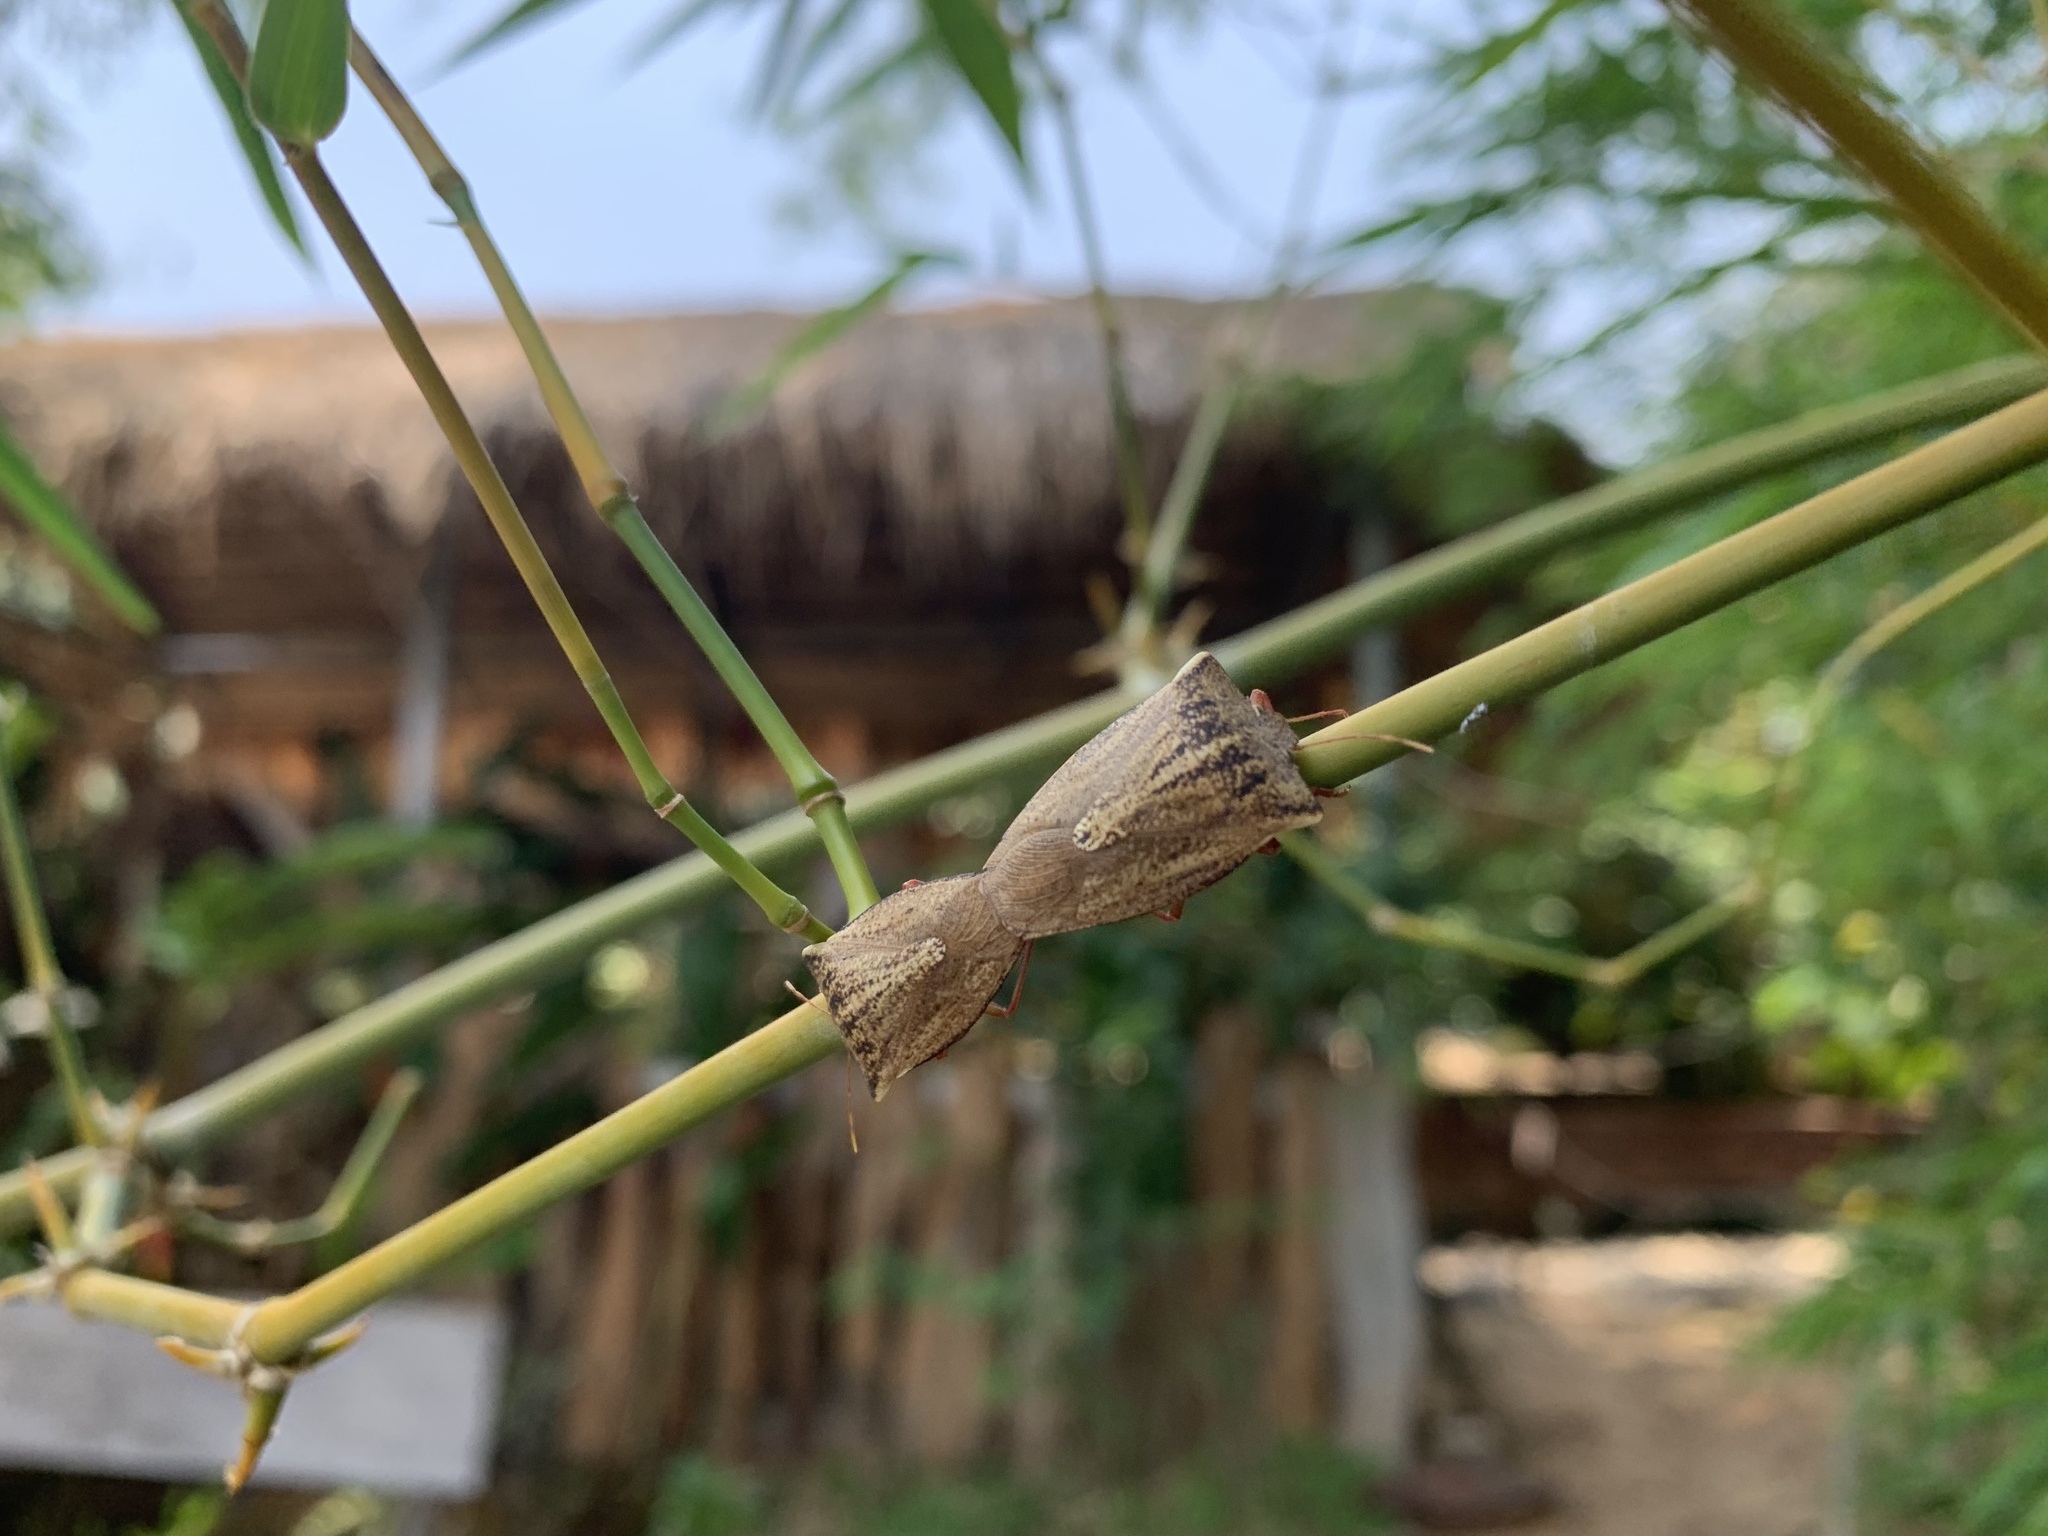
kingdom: Animalia
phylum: Arthropoda
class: Insecta
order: Hemiptera
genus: Vitruvius
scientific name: Vitruvius
